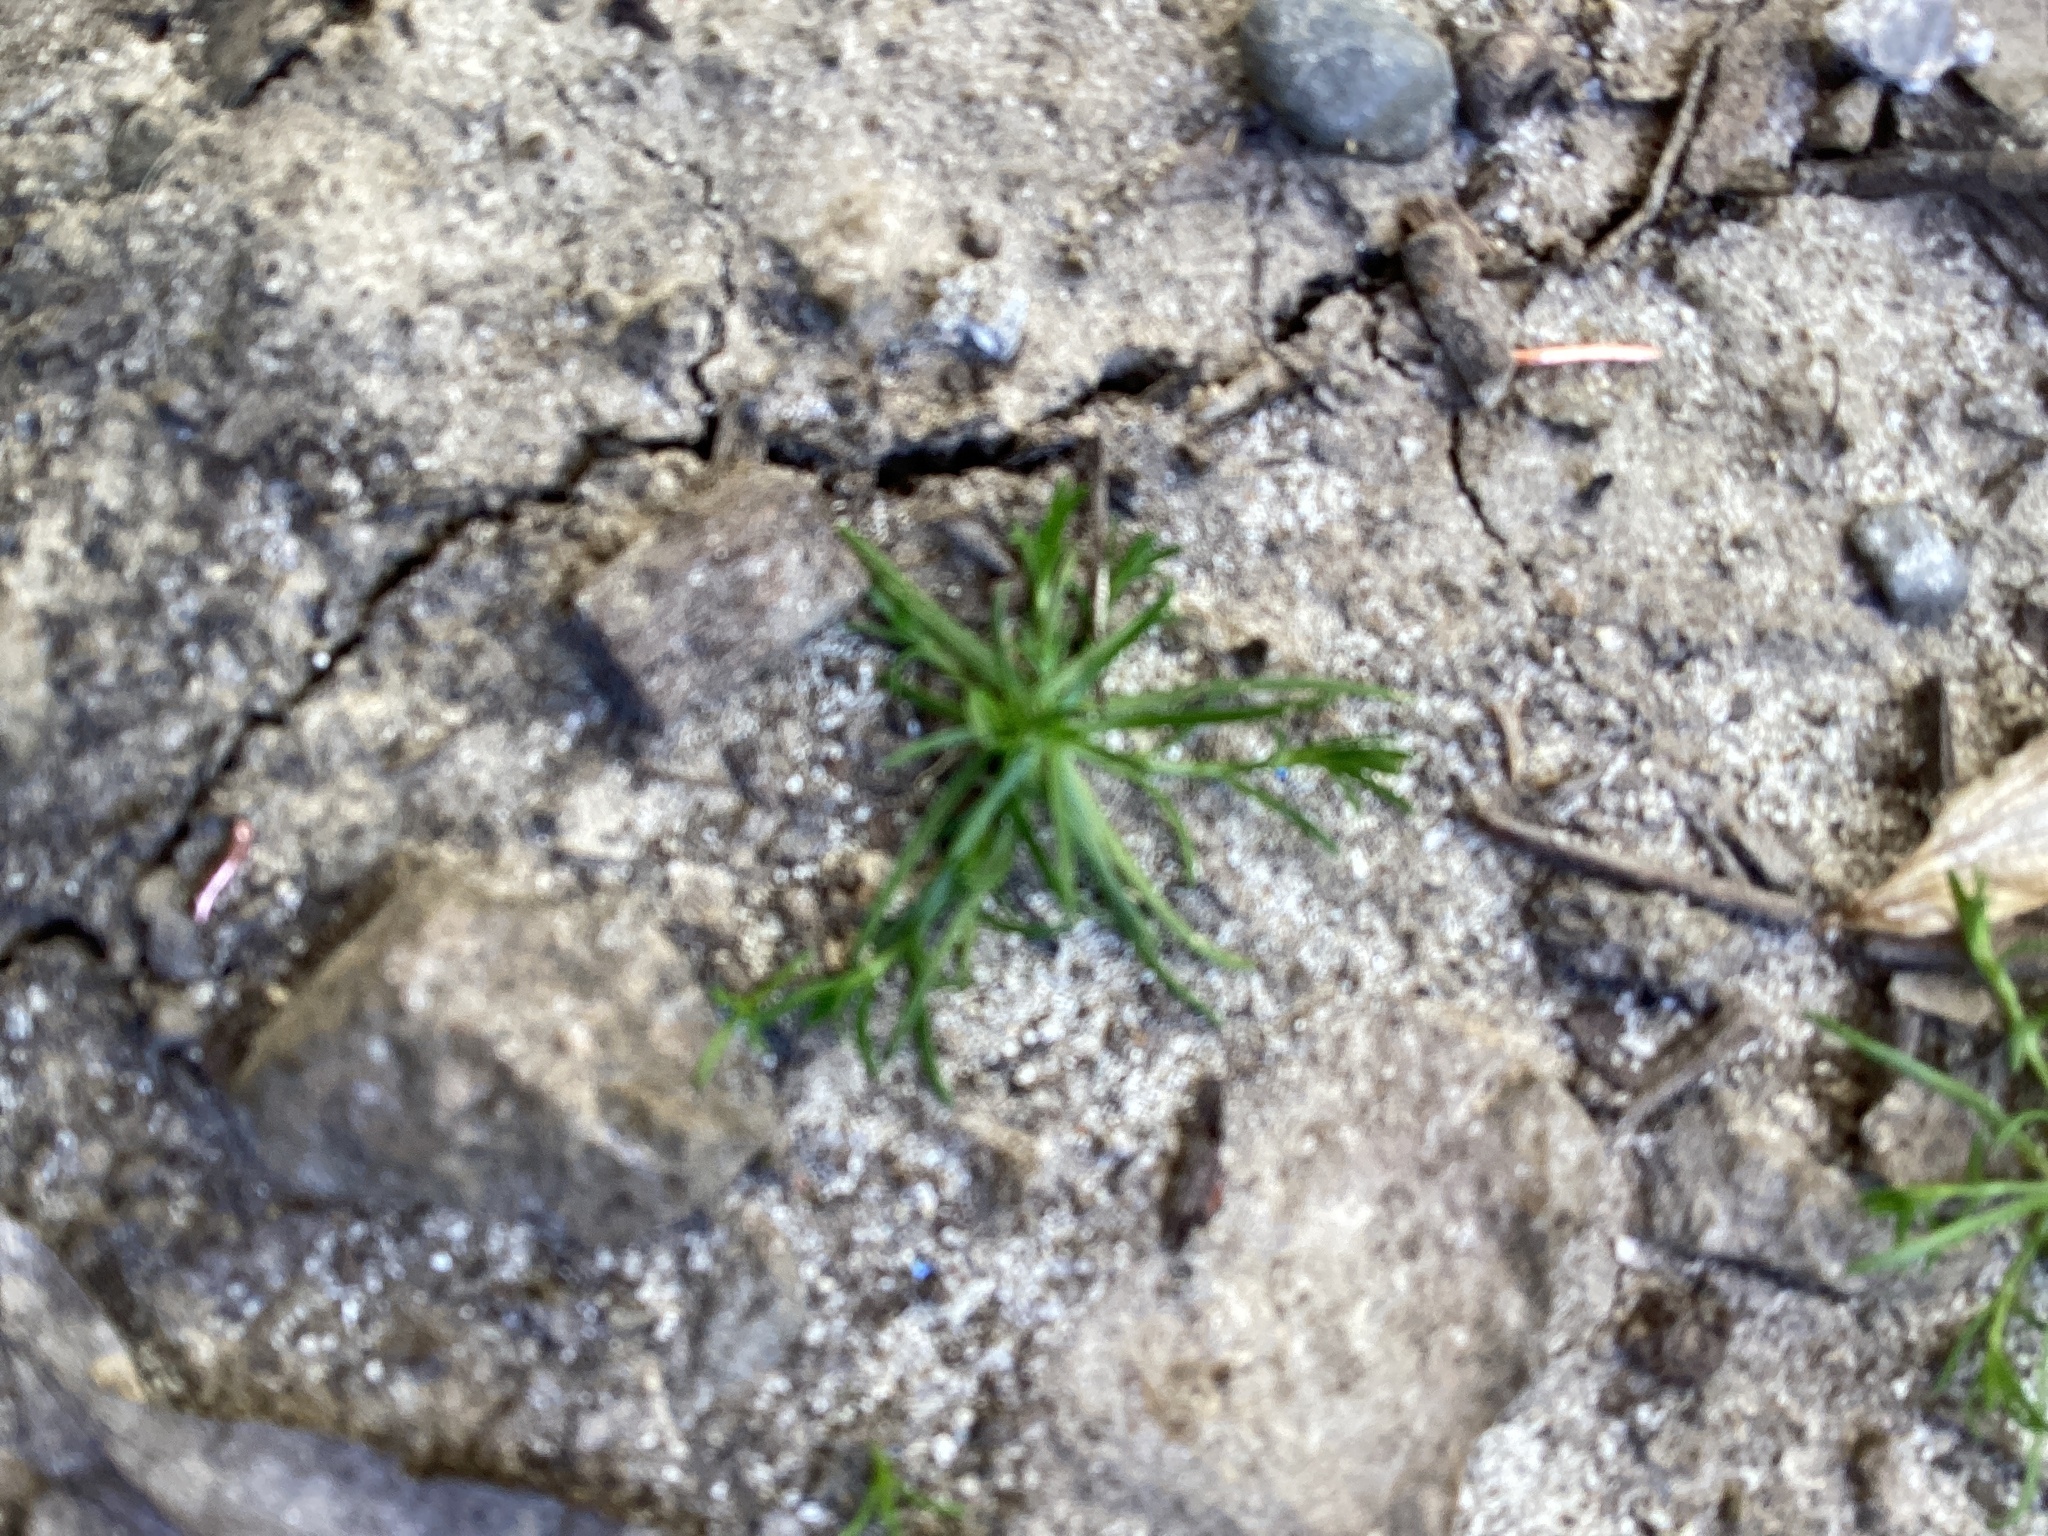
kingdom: Plantae
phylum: Tracheophyta
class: Magnoliopsida
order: Caryophyllales
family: Caryophyllaceae
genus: Sagina
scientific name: Sagina procumbens
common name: Procumbent pearlwort
